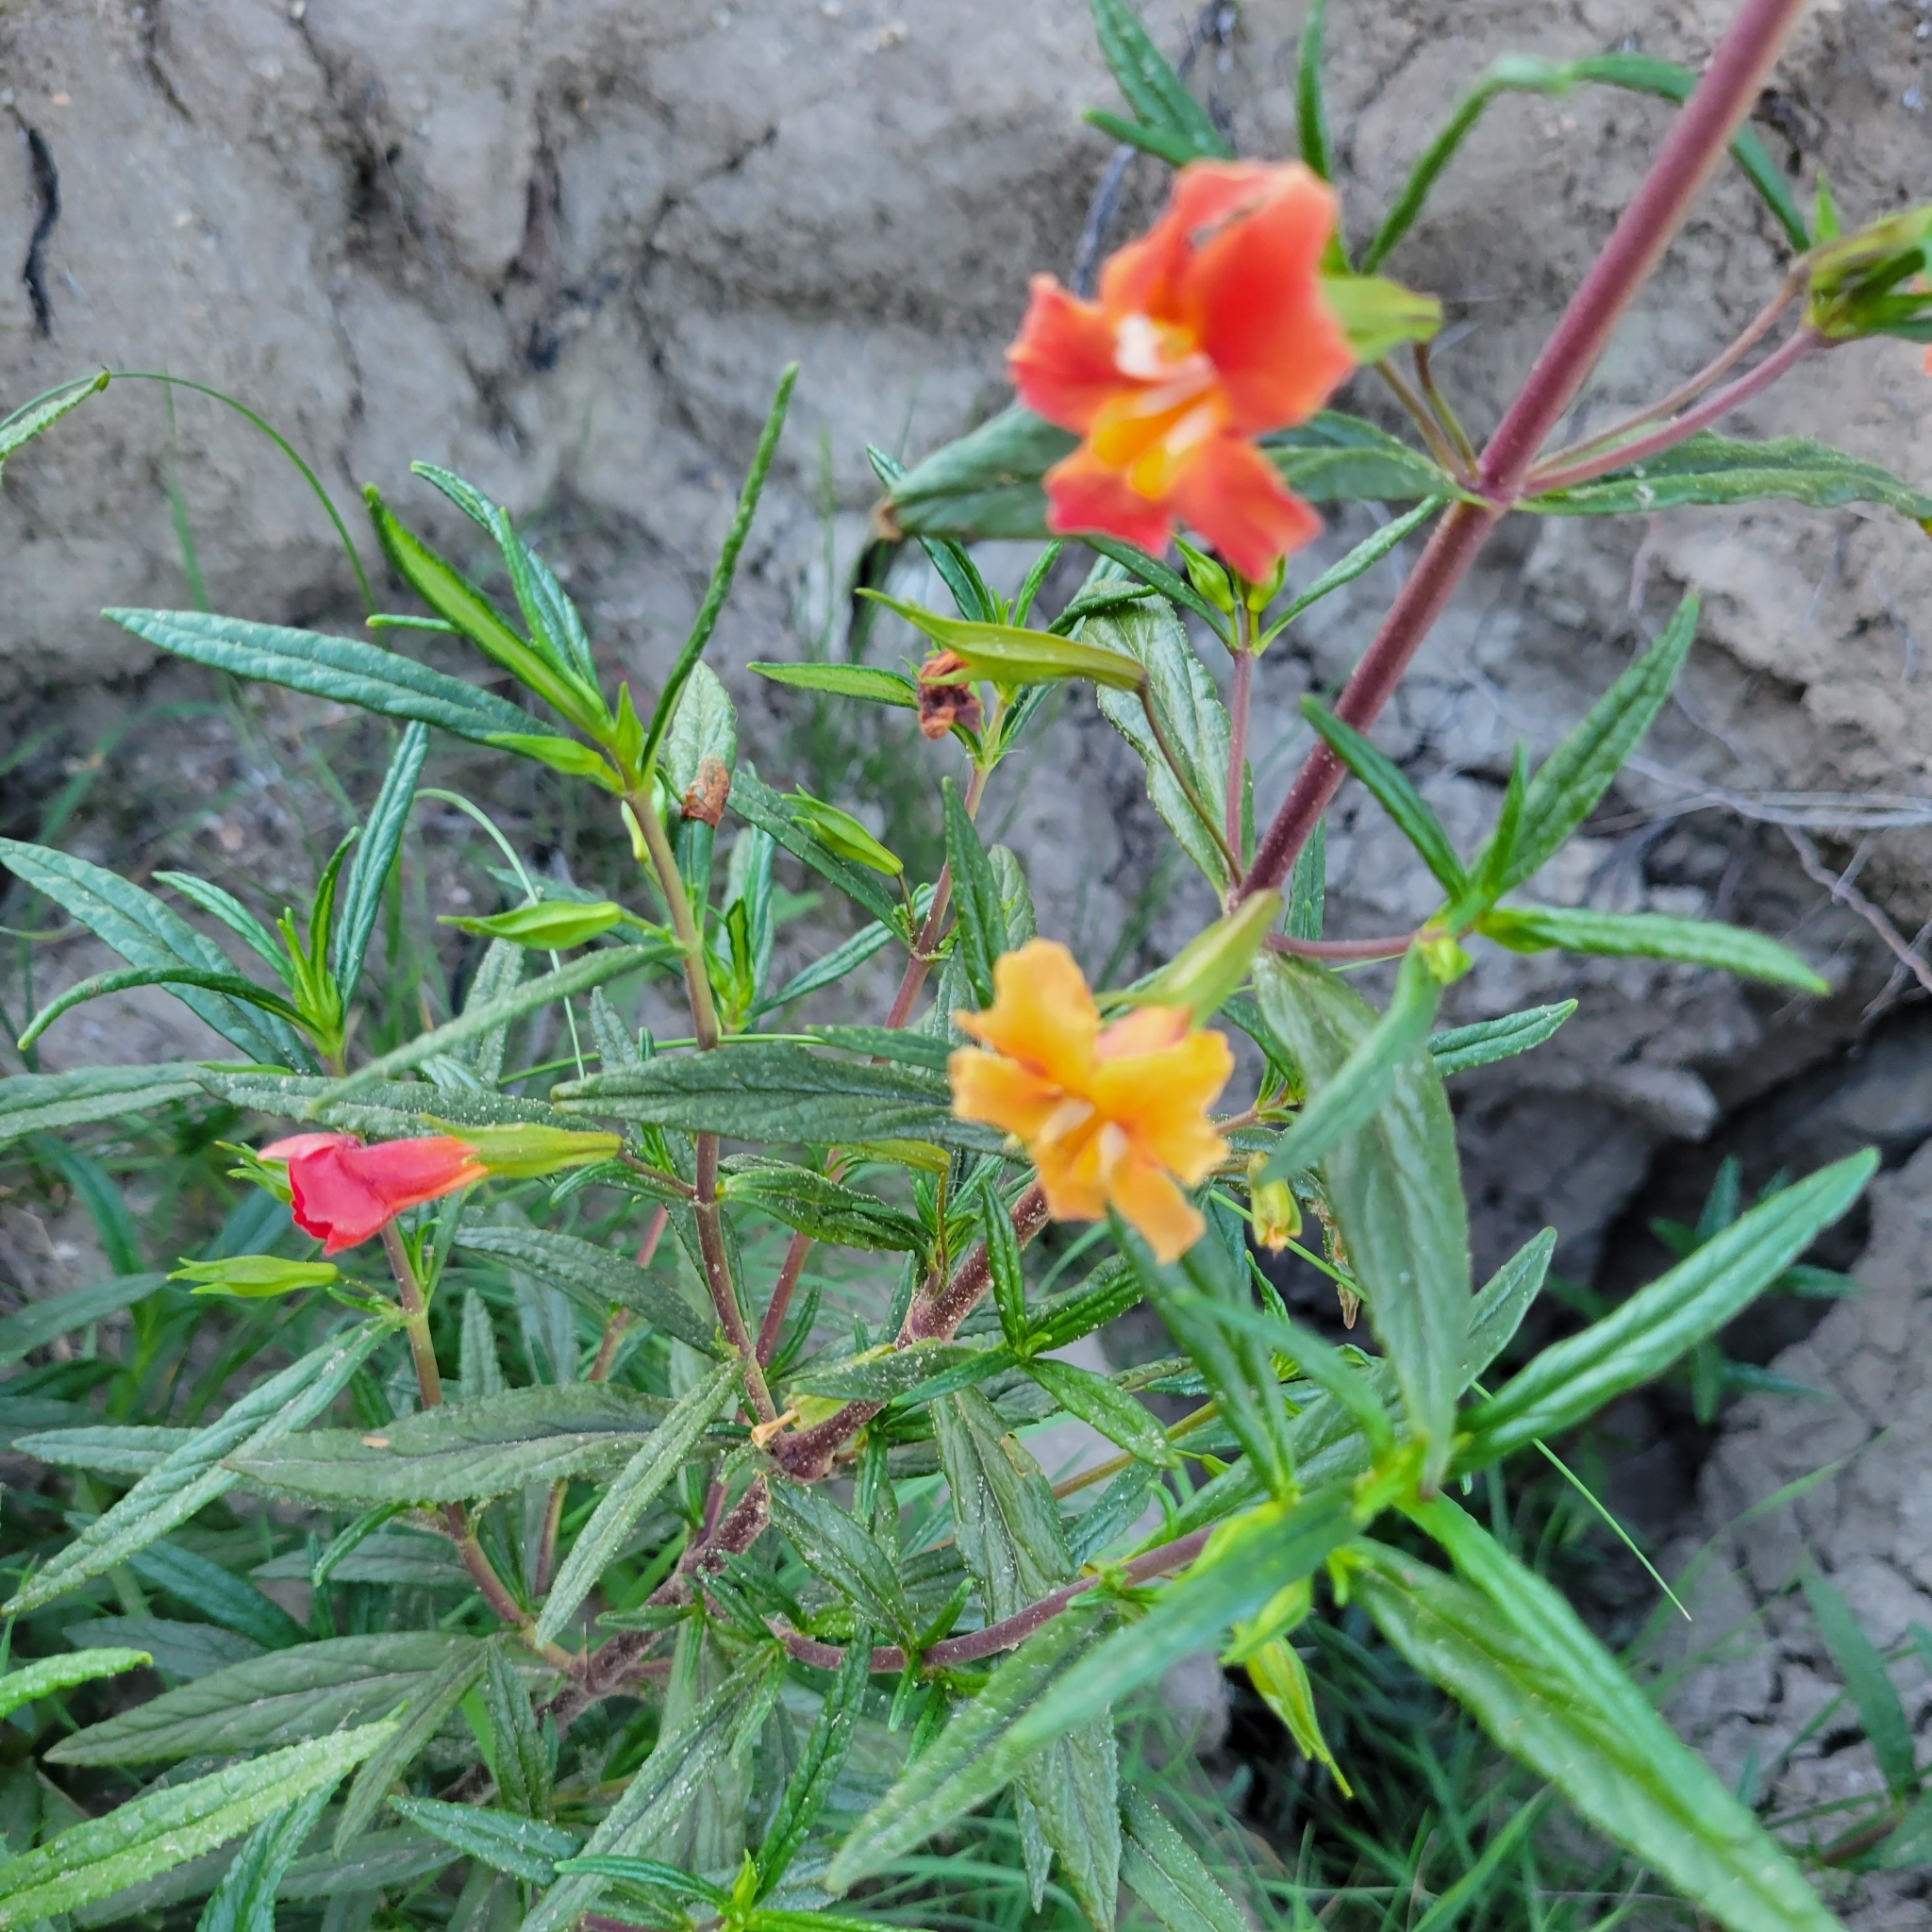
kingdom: Plantae
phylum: Tracheophyta
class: Magnoliopsida
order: Lamiales
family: Phrymaceae
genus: Diplacus
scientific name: Diplacus australis
